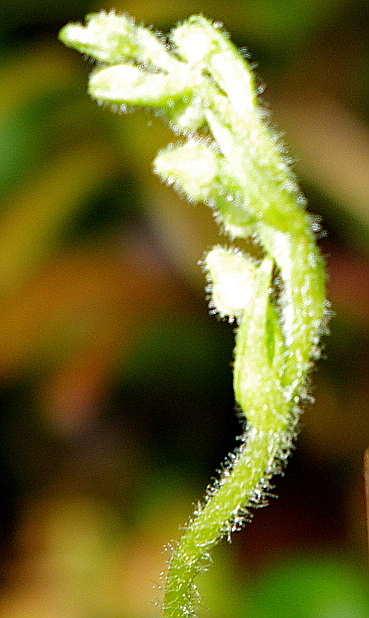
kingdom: Plantae
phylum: Tracheophyta
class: Liliopsida
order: Asparagales
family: Orchidaceae
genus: Goodyera
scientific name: Goodyera repens
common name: Creeping lady's-tresses
